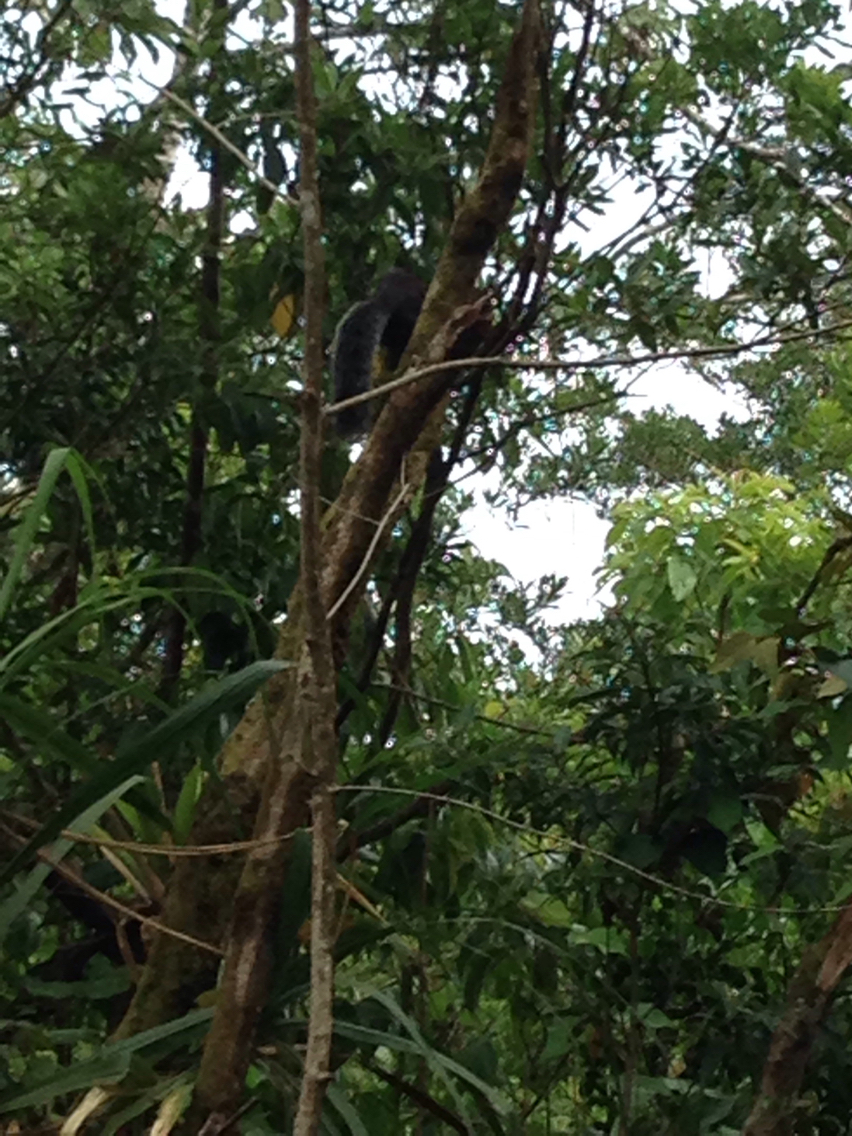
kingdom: Animalia
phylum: Chordata
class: Mammalia
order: Rodentia
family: Sciuridae
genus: Sciurus
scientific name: Sciurus variegatoides
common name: Variegated squirrel
